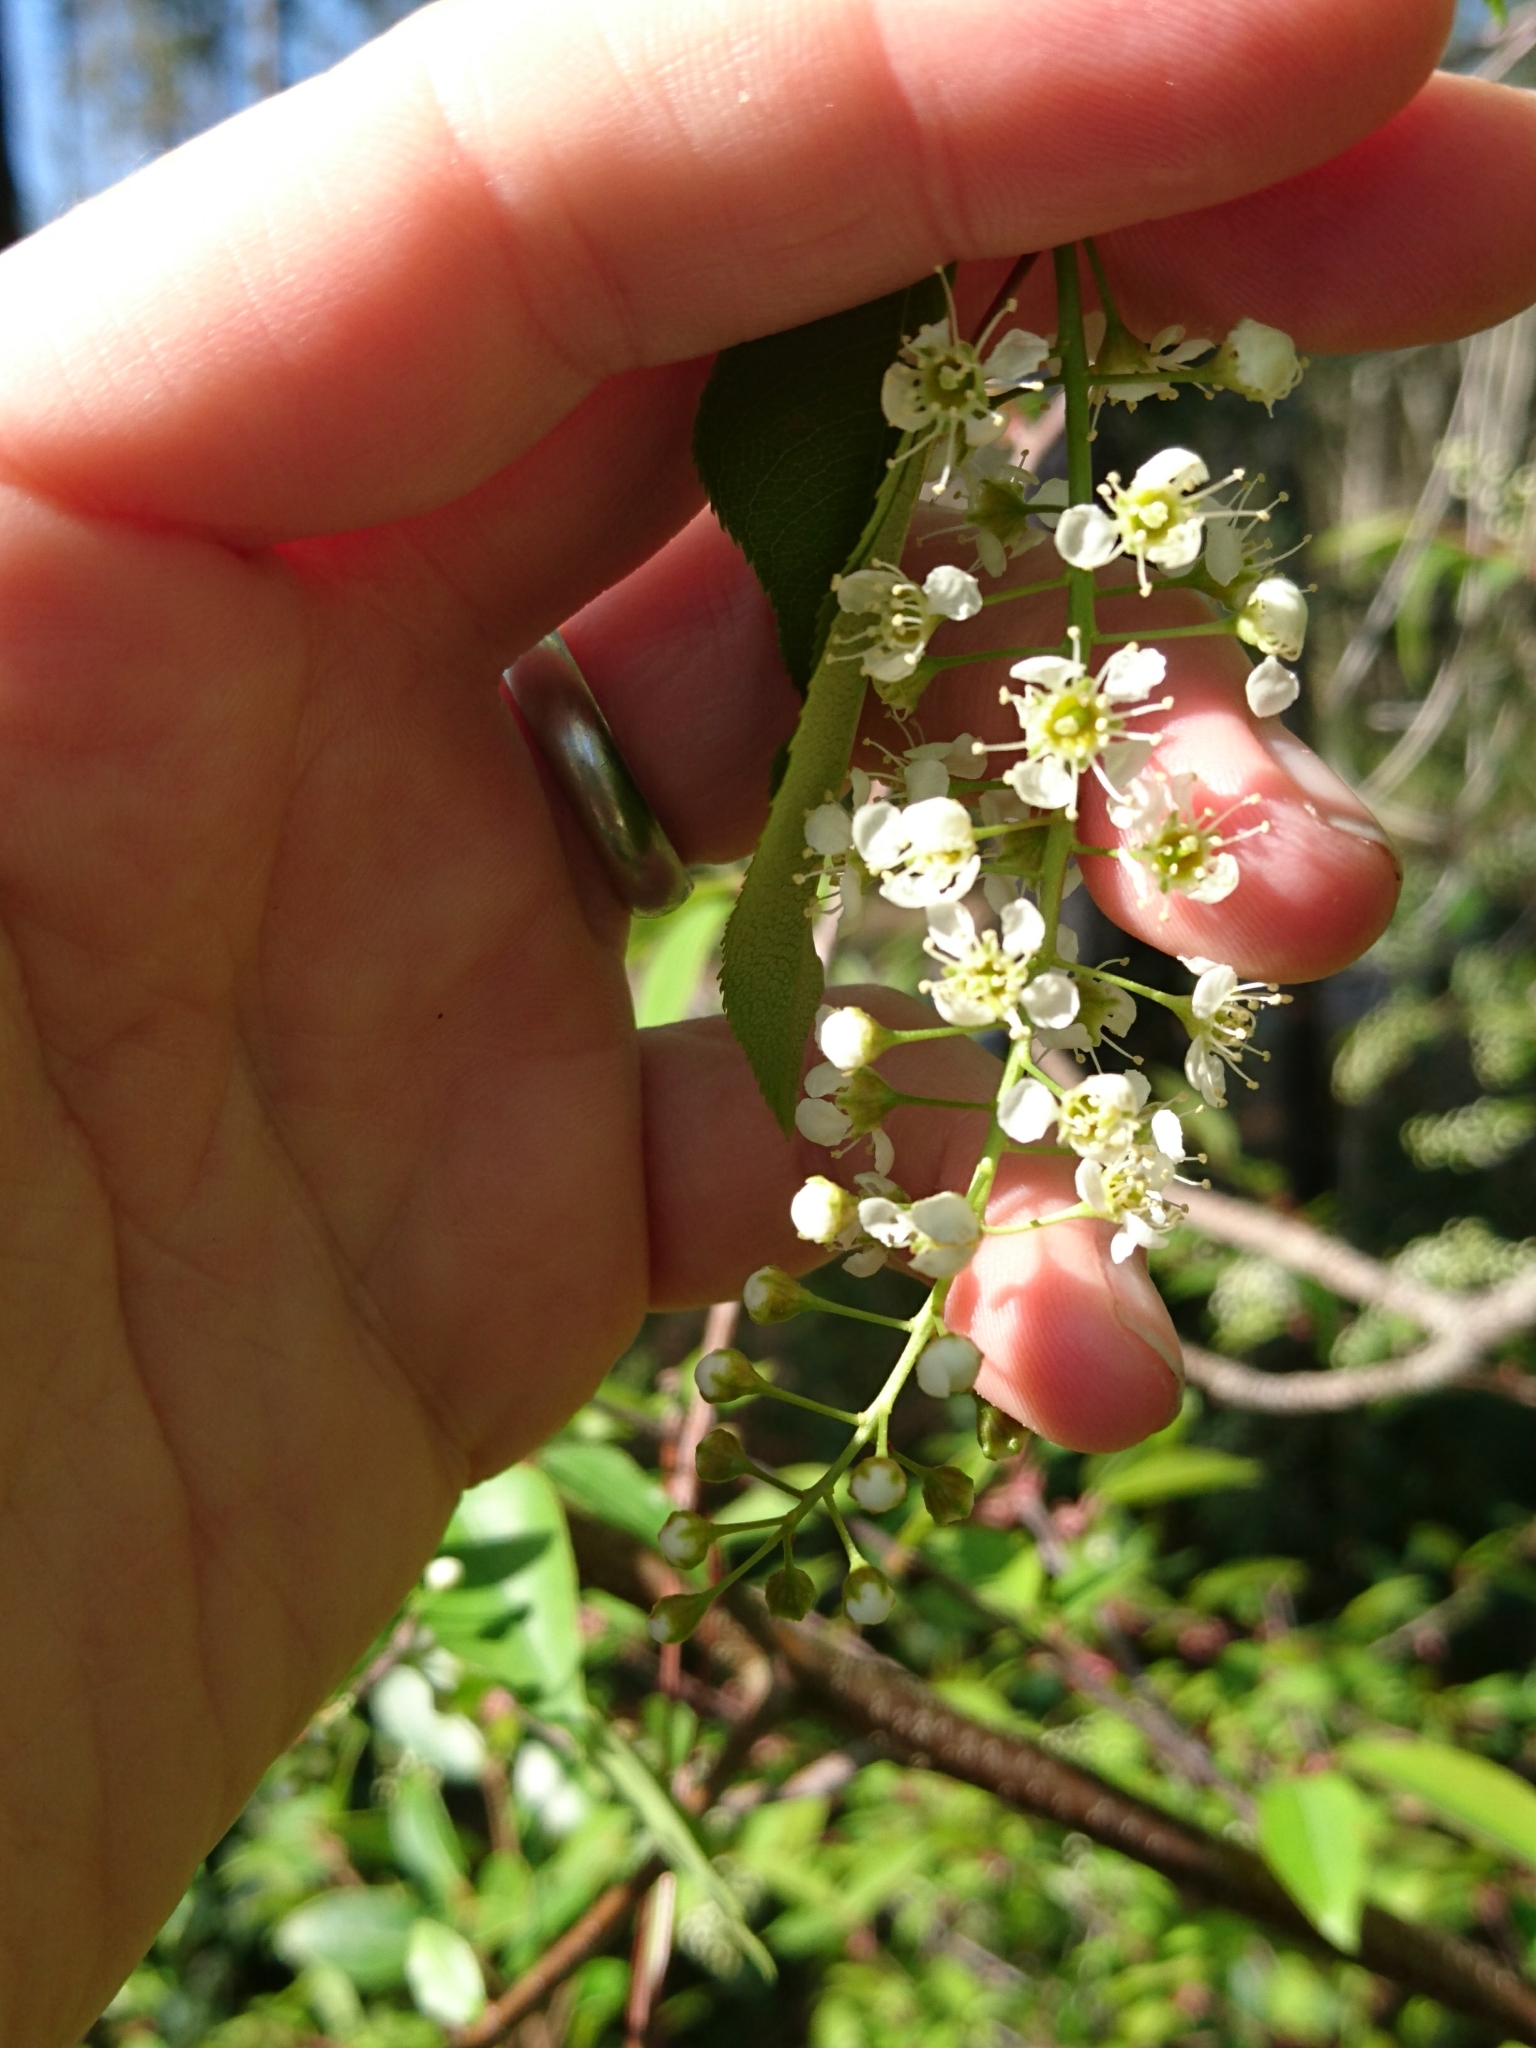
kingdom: Plantae
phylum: Tracheophyta
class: Magnoliopsida
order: Rosales
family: Rosaceae
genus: Prunus
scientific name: Prunus serotina
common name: Black cherry
